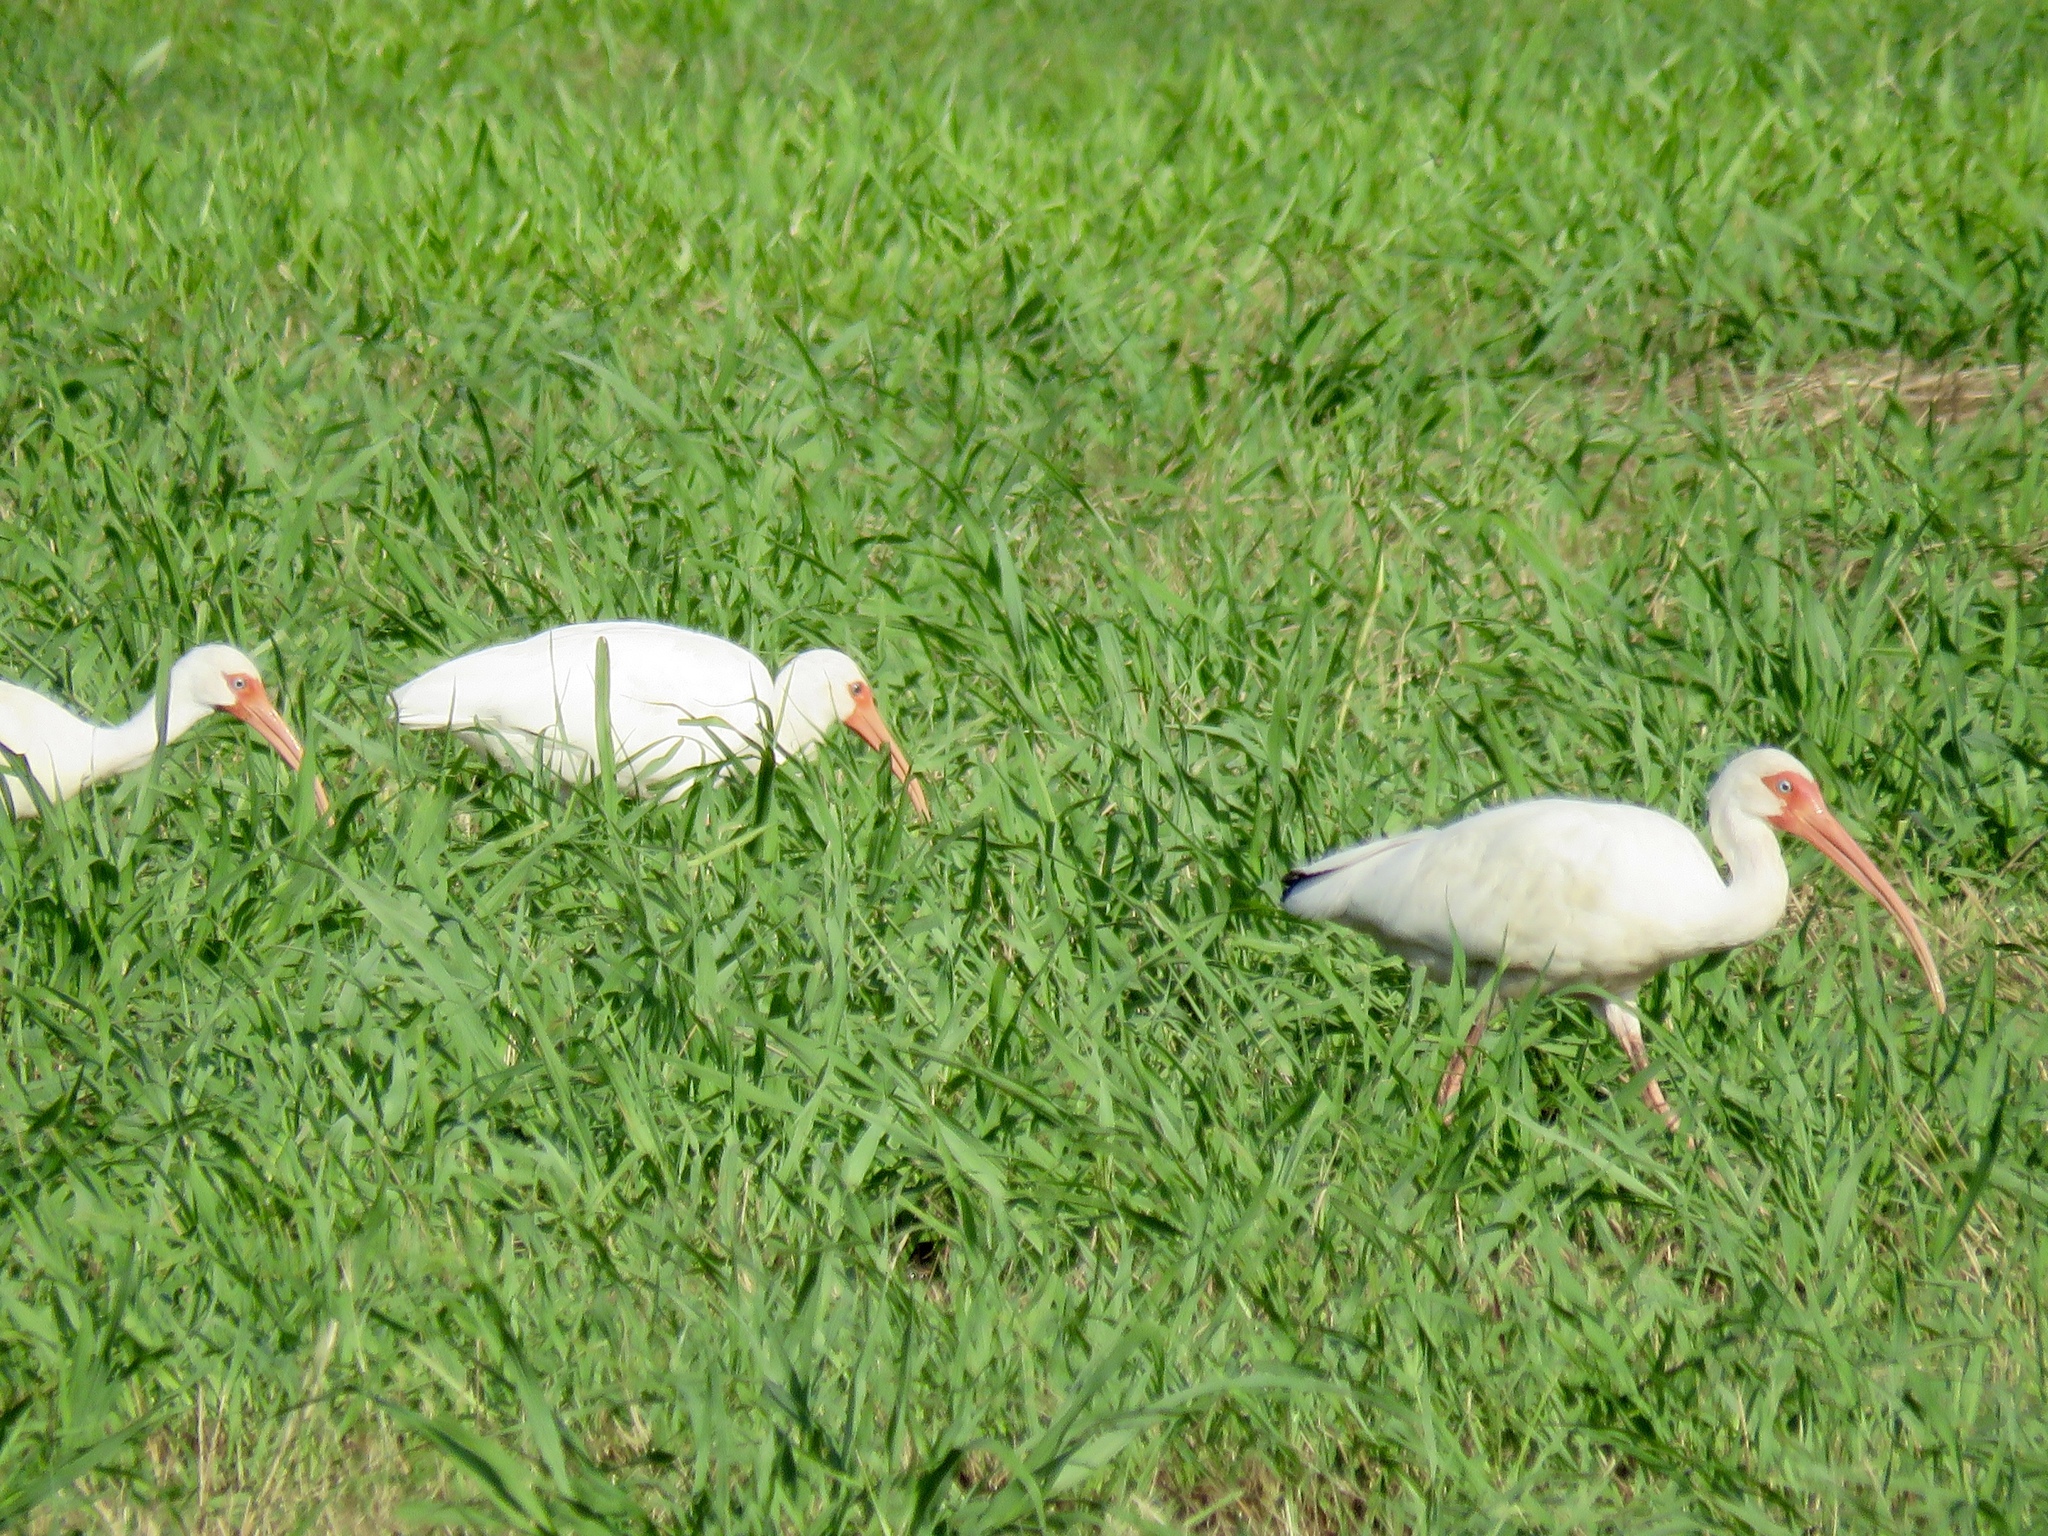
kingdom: Animalia
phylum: Chordata
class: Aves
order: Pelecaniformes
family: Threskiornithidae
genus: Eudocimus
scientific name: Eudocimus albus
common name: White ibis
